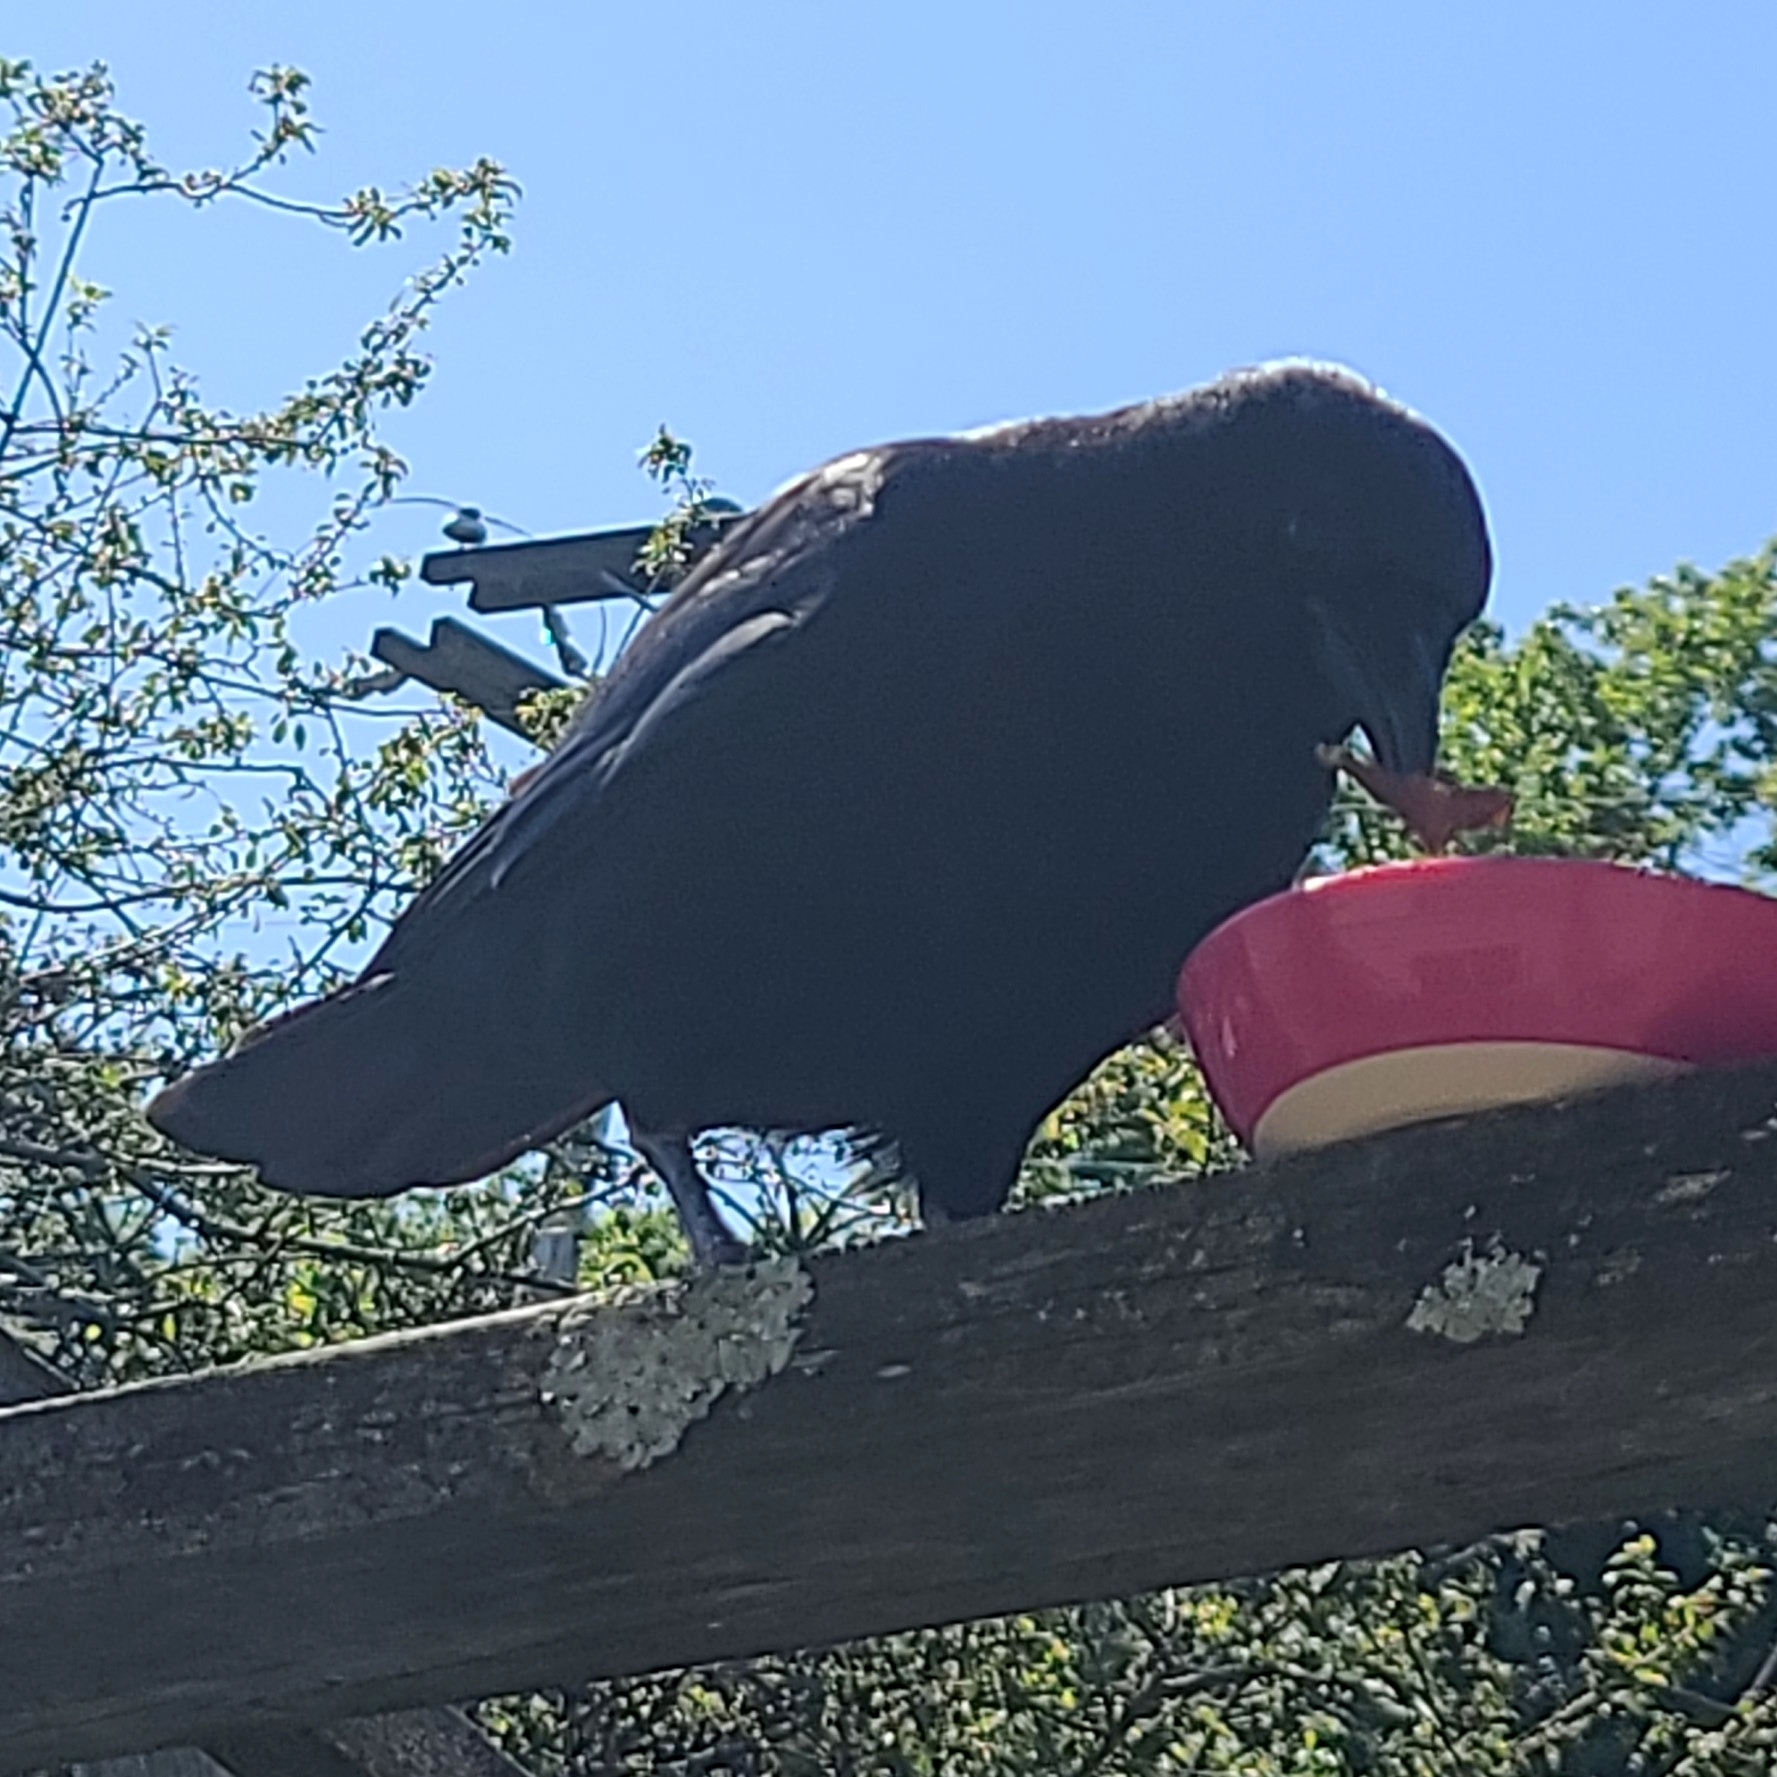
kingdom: Animalia
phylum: Chordata
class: Aves
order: Passeriformes
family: Corvidae
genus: Corvus
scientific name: Corvus brachyrhynchos
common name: American crow
